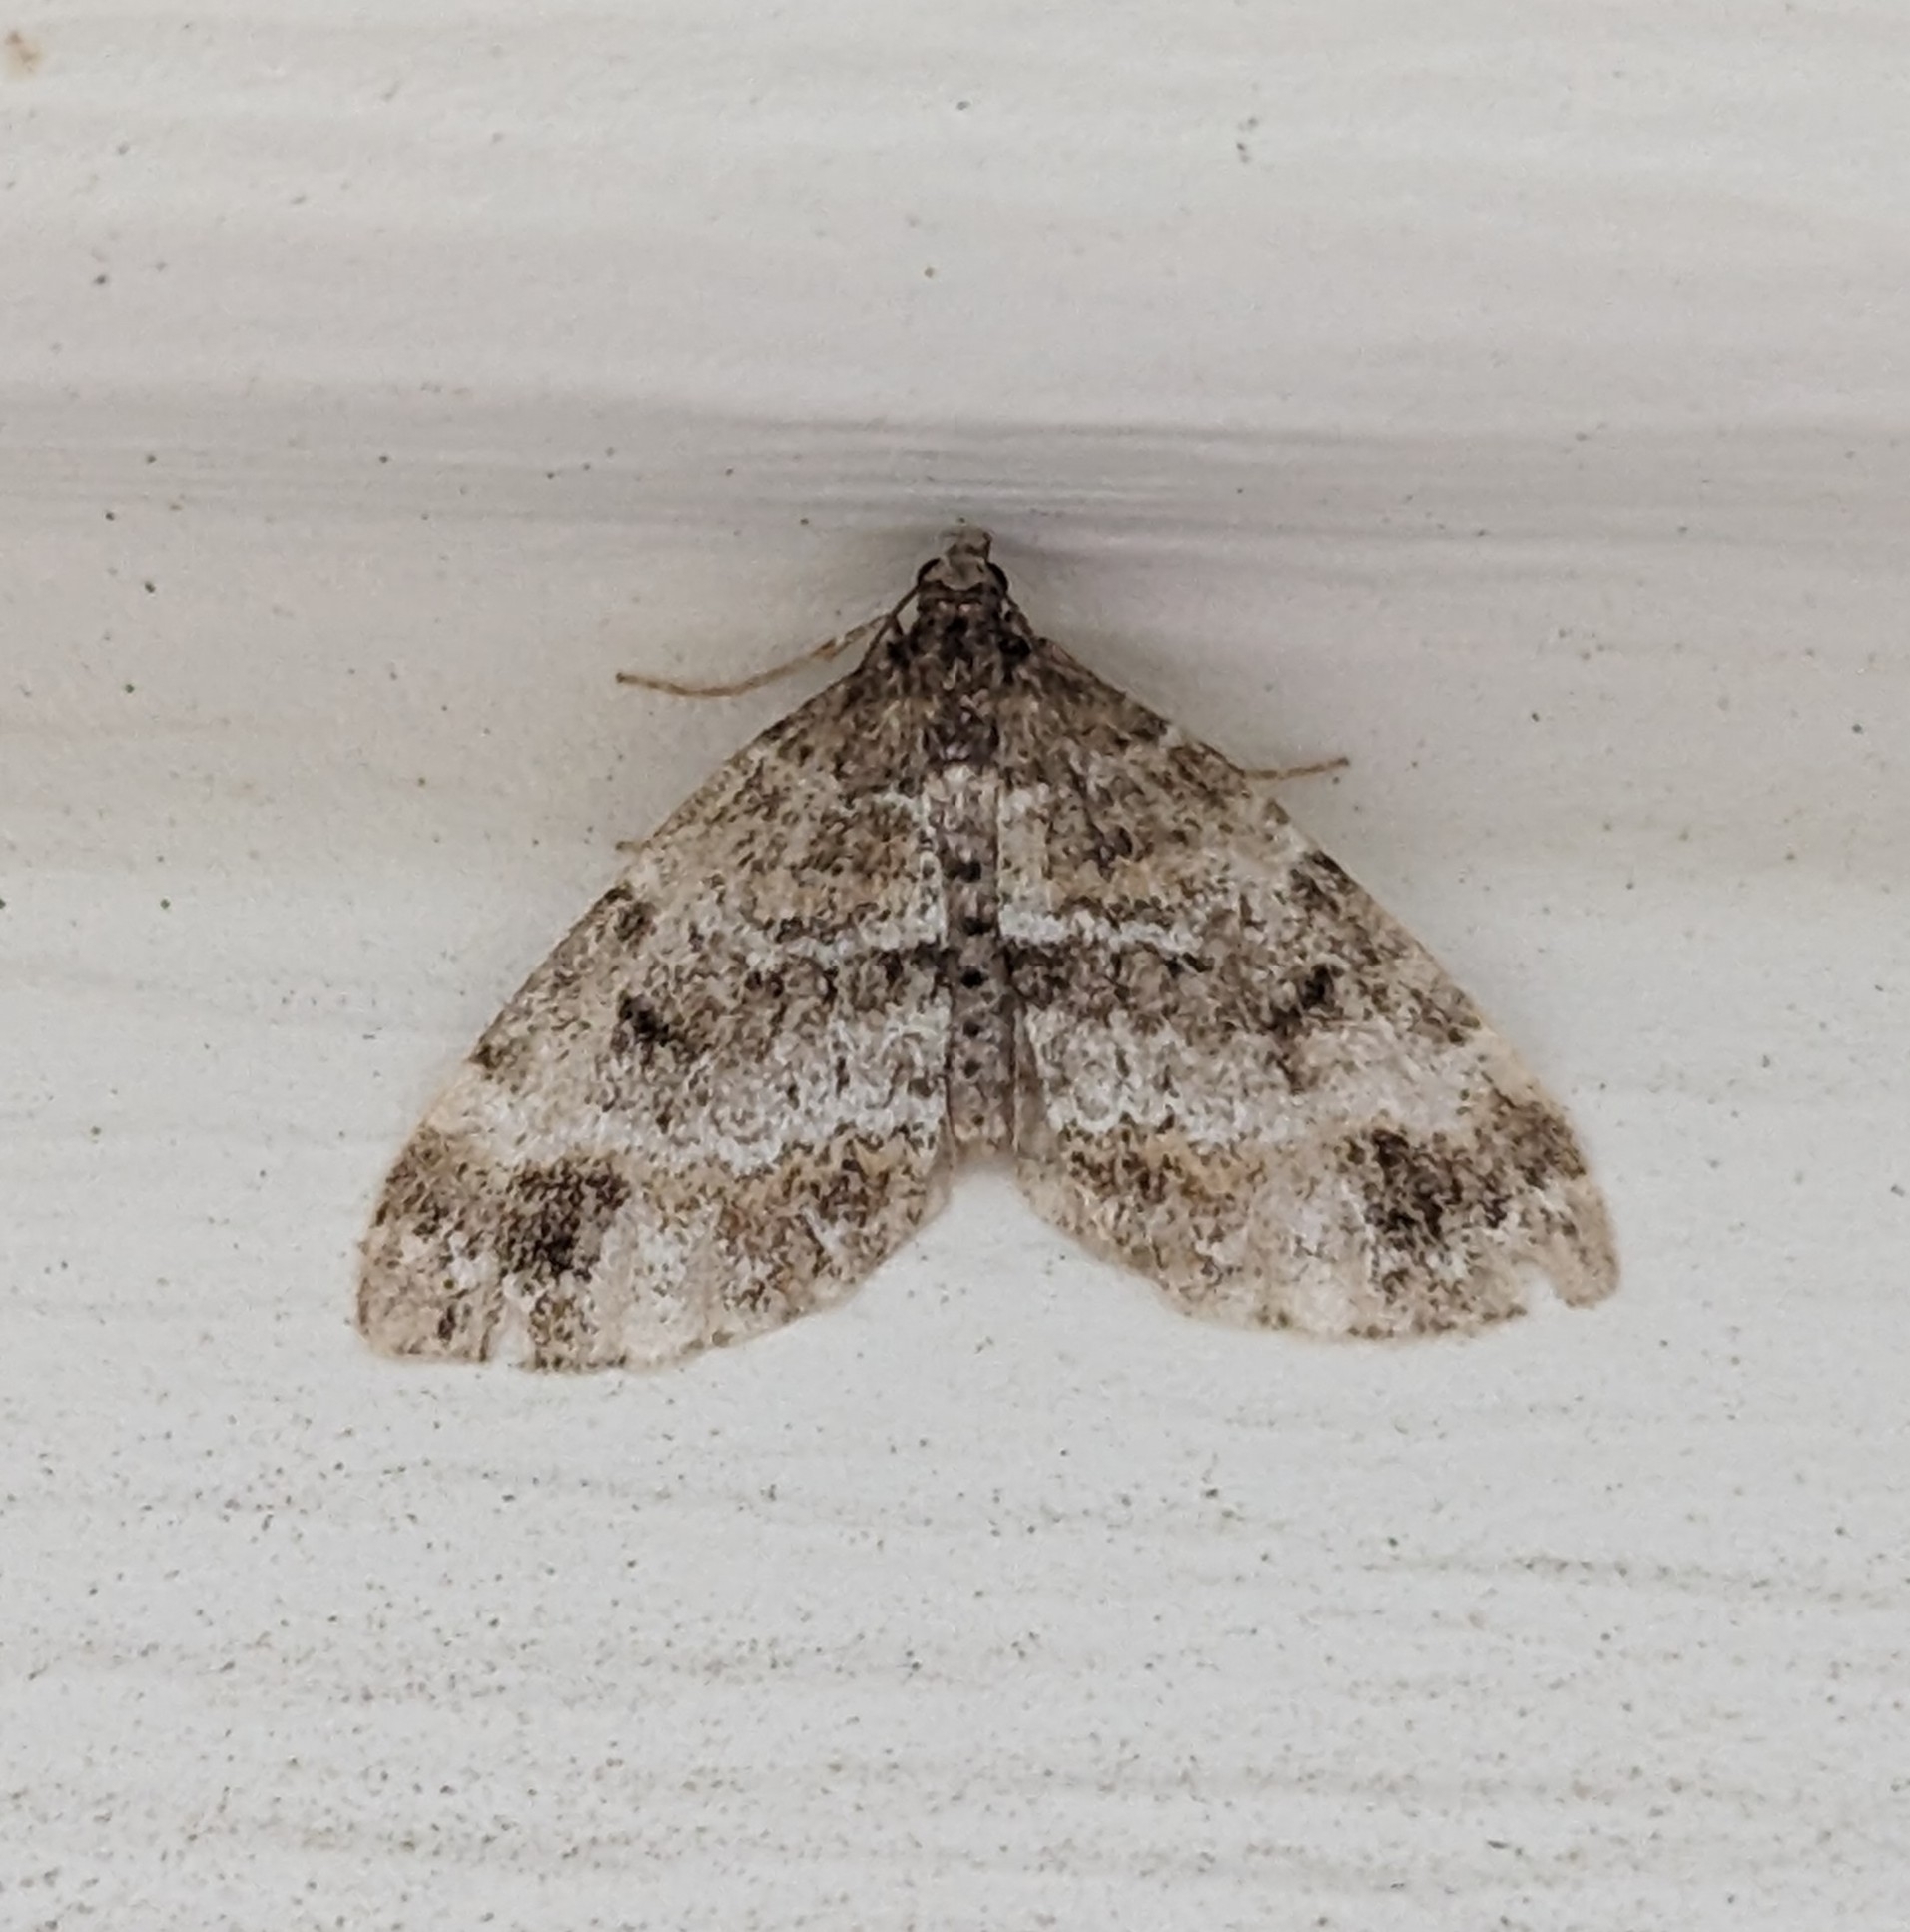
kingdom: Animalia
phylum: Arthropoda
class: Insecta
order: Lepidoptera
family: Geometridae
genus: Martania
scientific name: Martania
